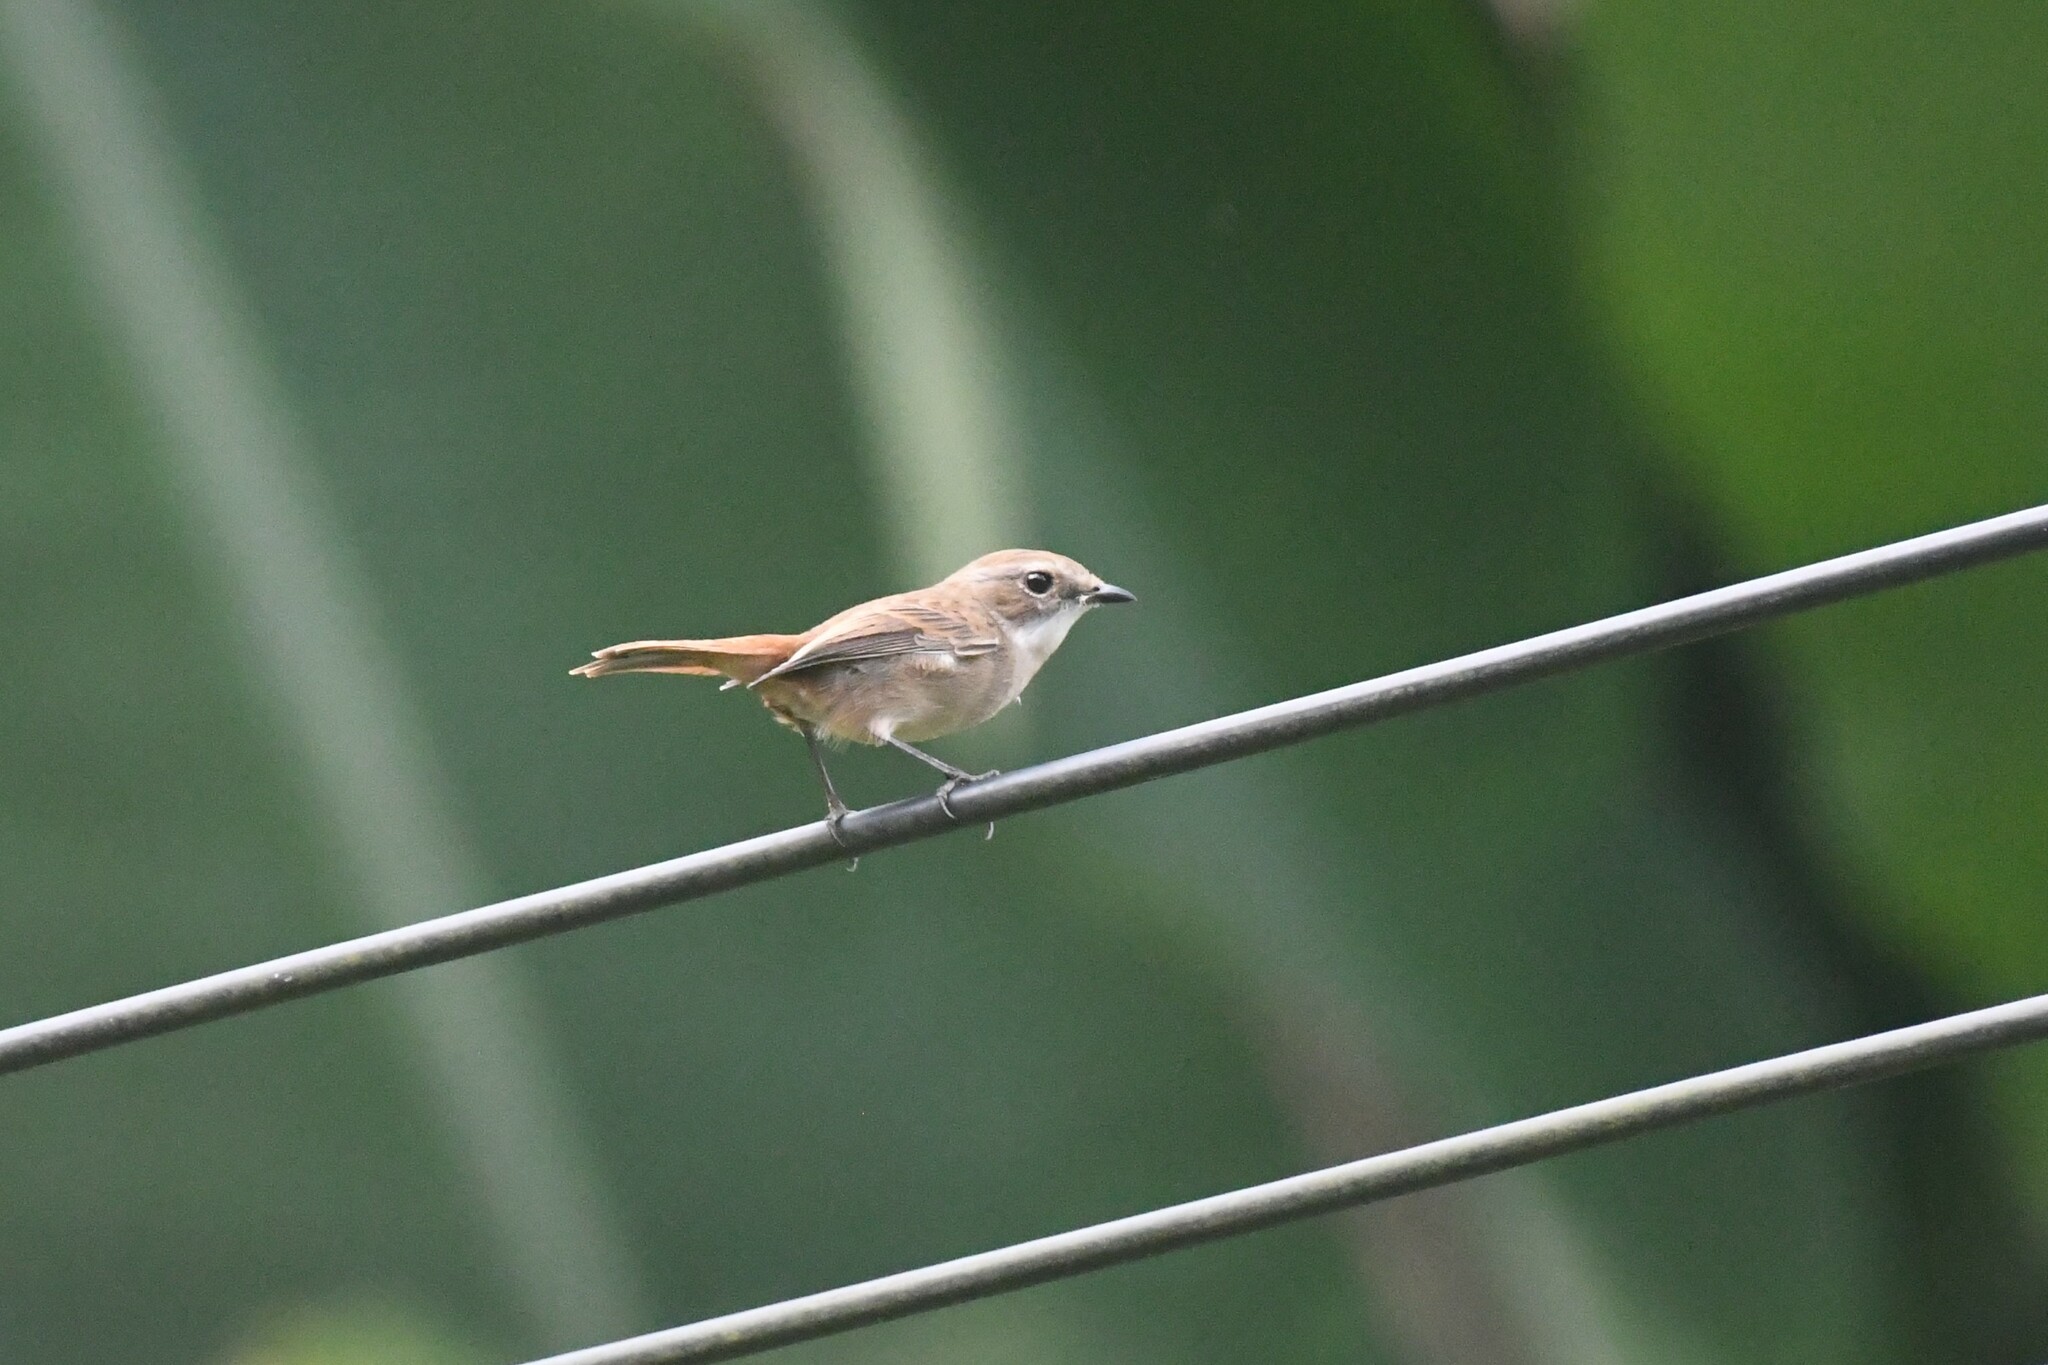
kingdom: Animalia
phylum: Chordata
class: Aves
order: Passeriformes
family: Muscicapidae
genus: Saxicola
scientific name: Saxicola ferreus
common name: Grey bush chat
